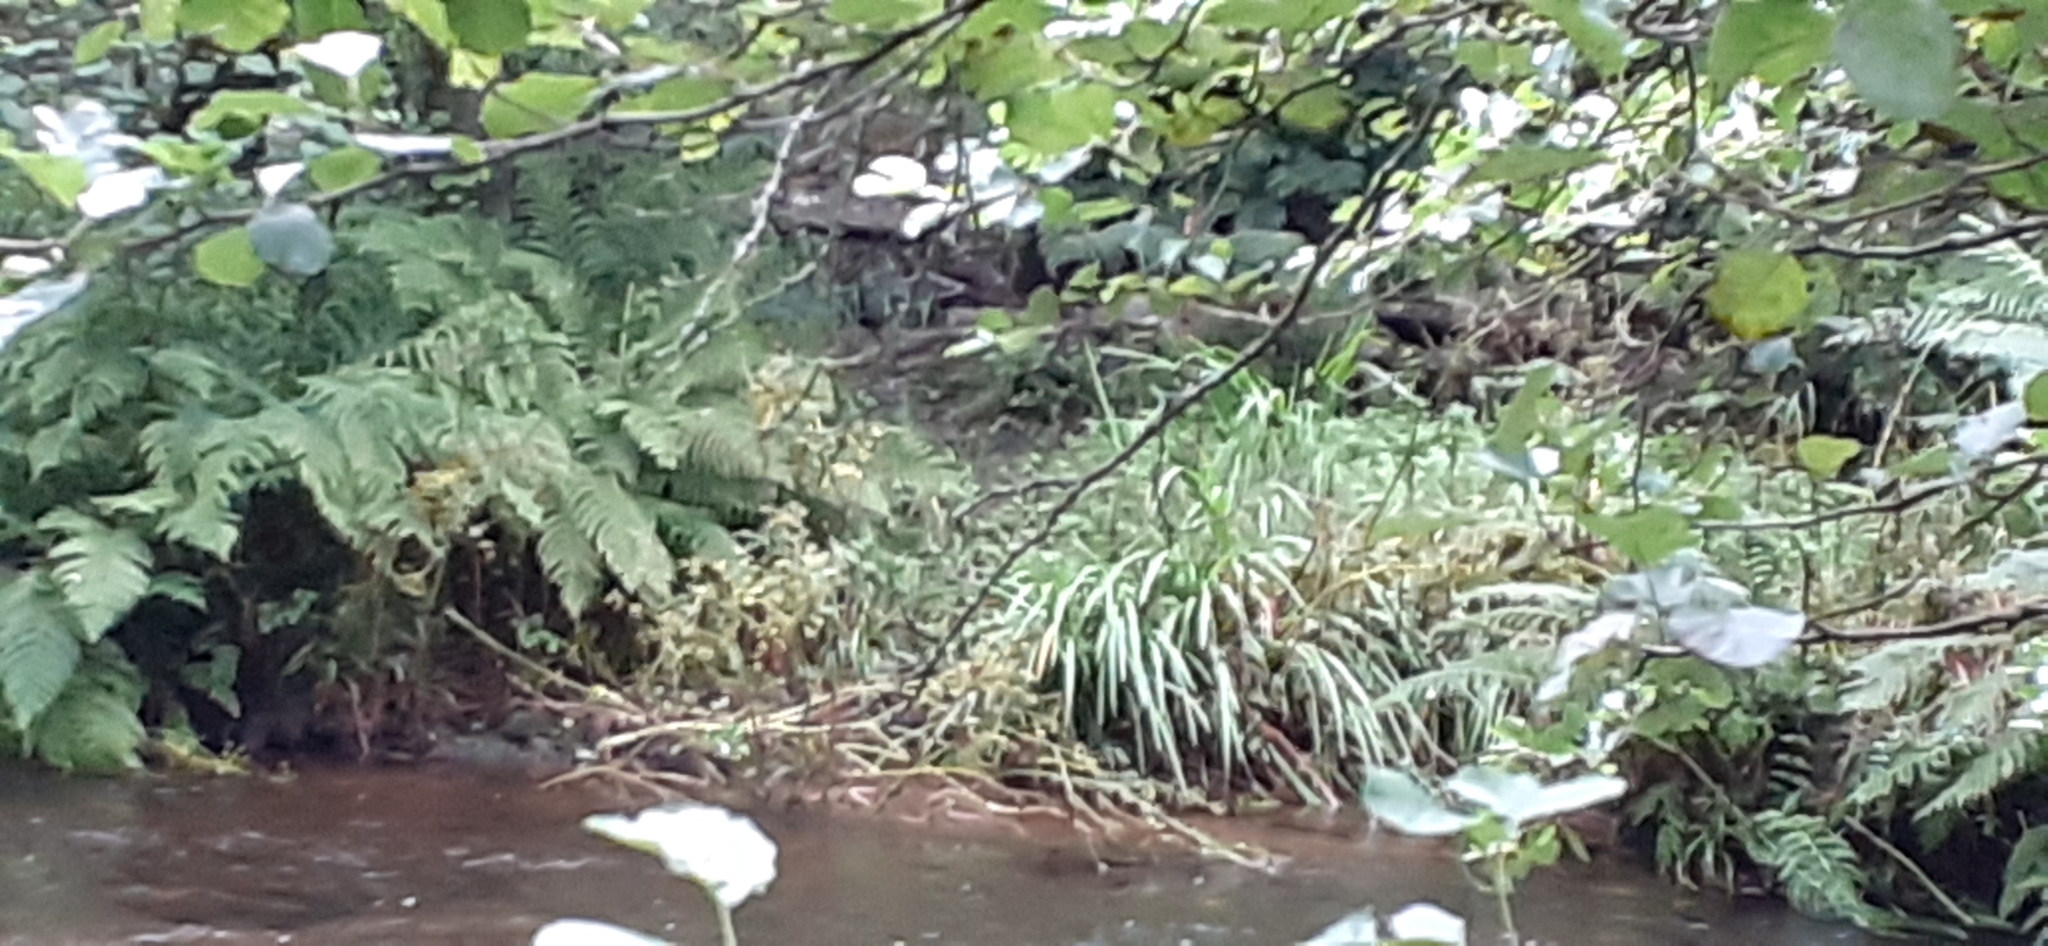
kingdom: Plantae
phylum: Tracheophyta
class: Liliopsida
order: Asparagales
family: Iridaceae
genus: Crocosmia
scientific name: Crocosmia crocosmiiflora
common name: Montbretia
